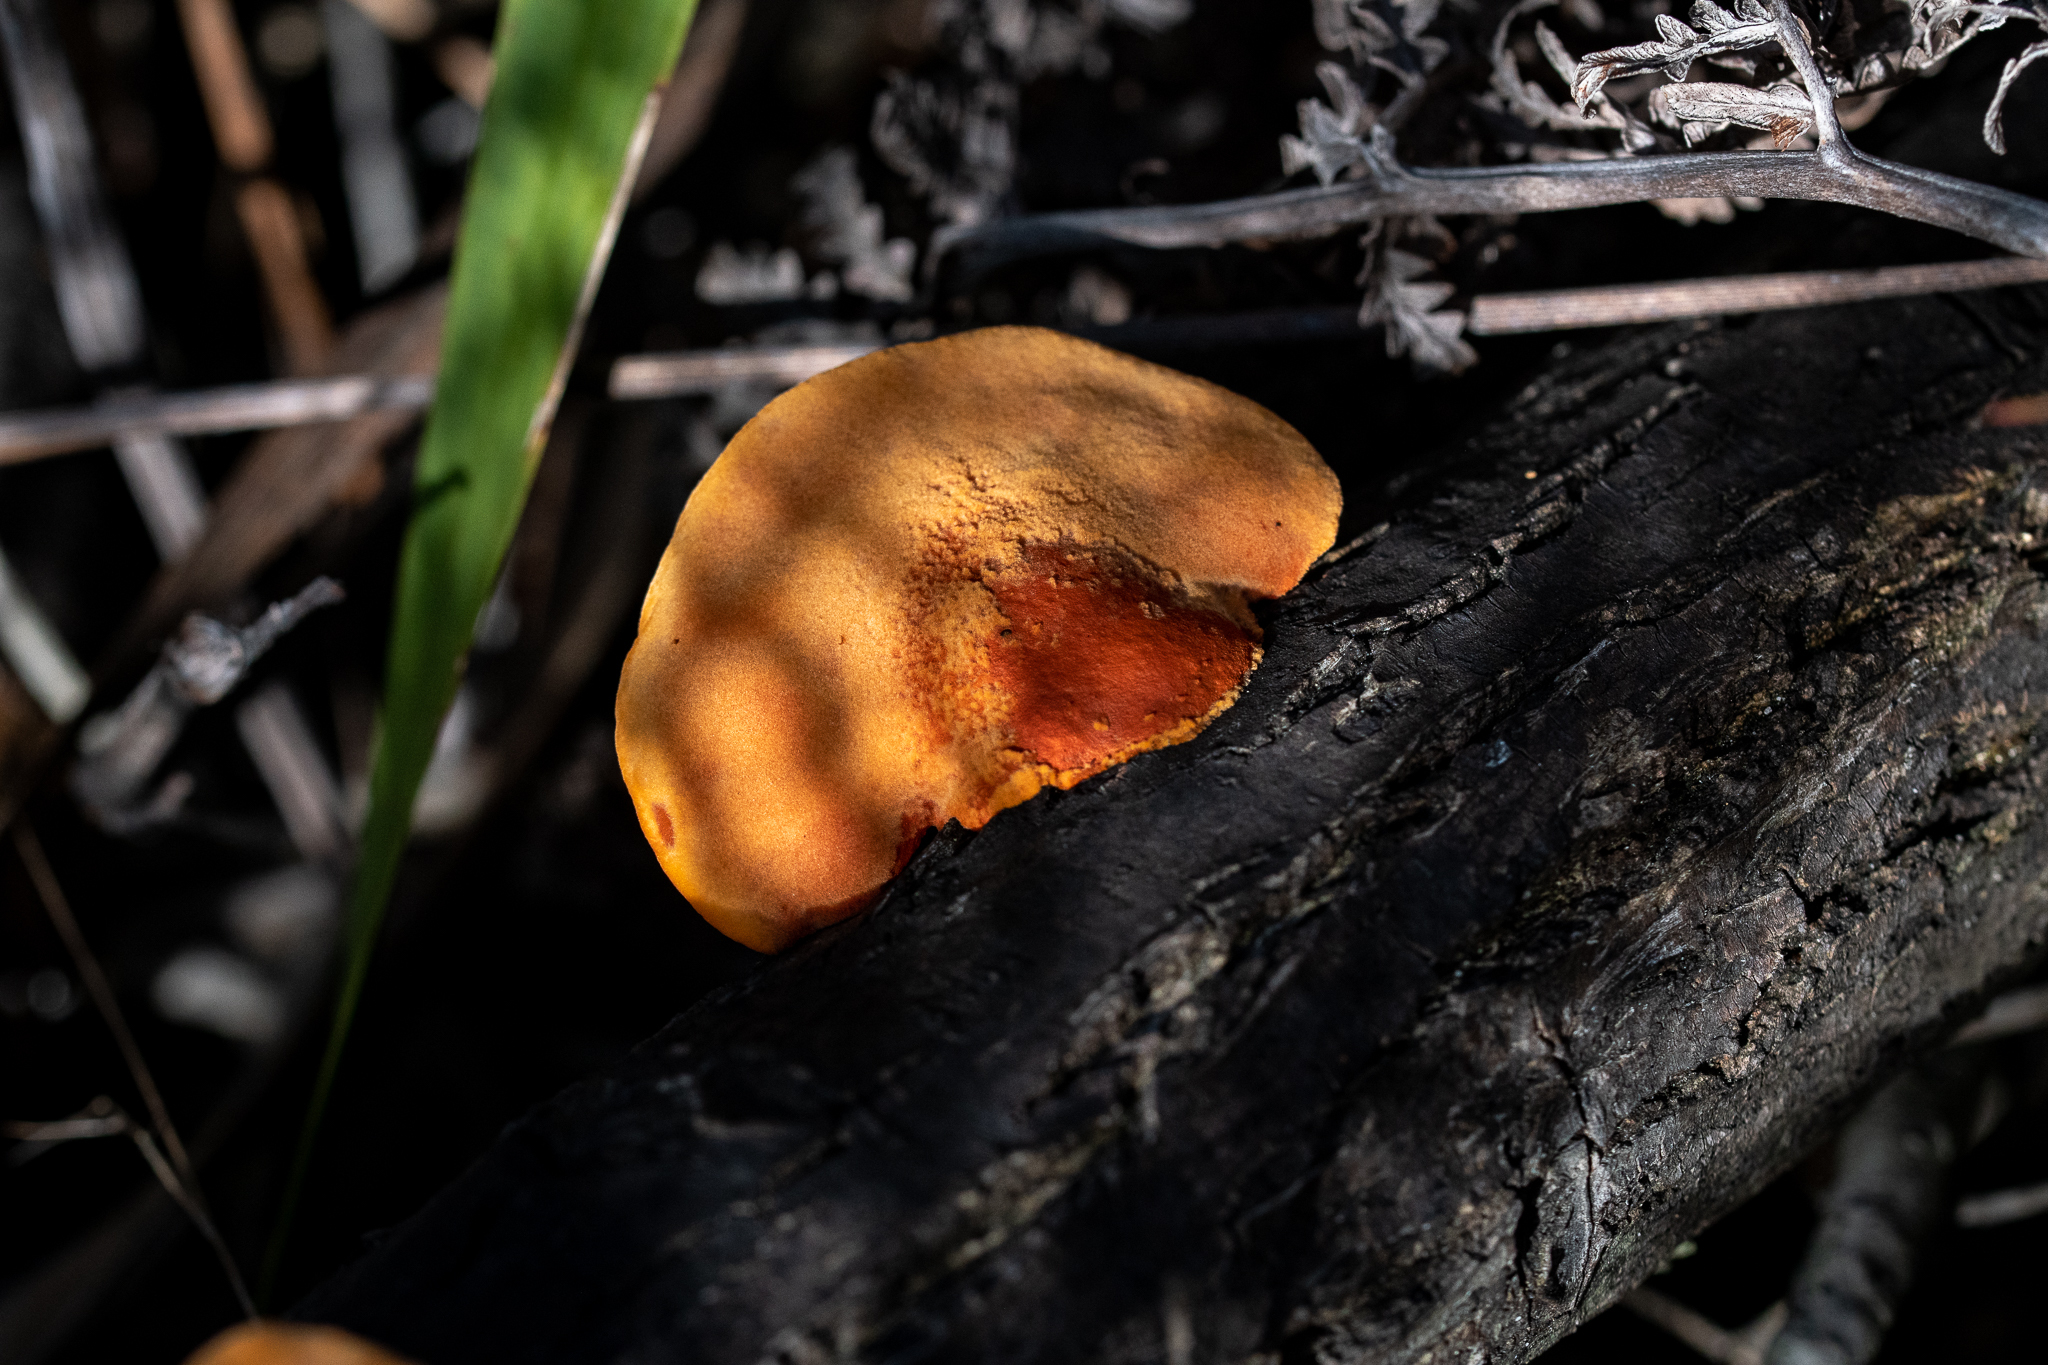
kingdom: Fungi
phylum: Basidiomycota
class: Agaricomycetes
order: Polyporales
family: Polyporaceae
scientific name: Polyporaceae
